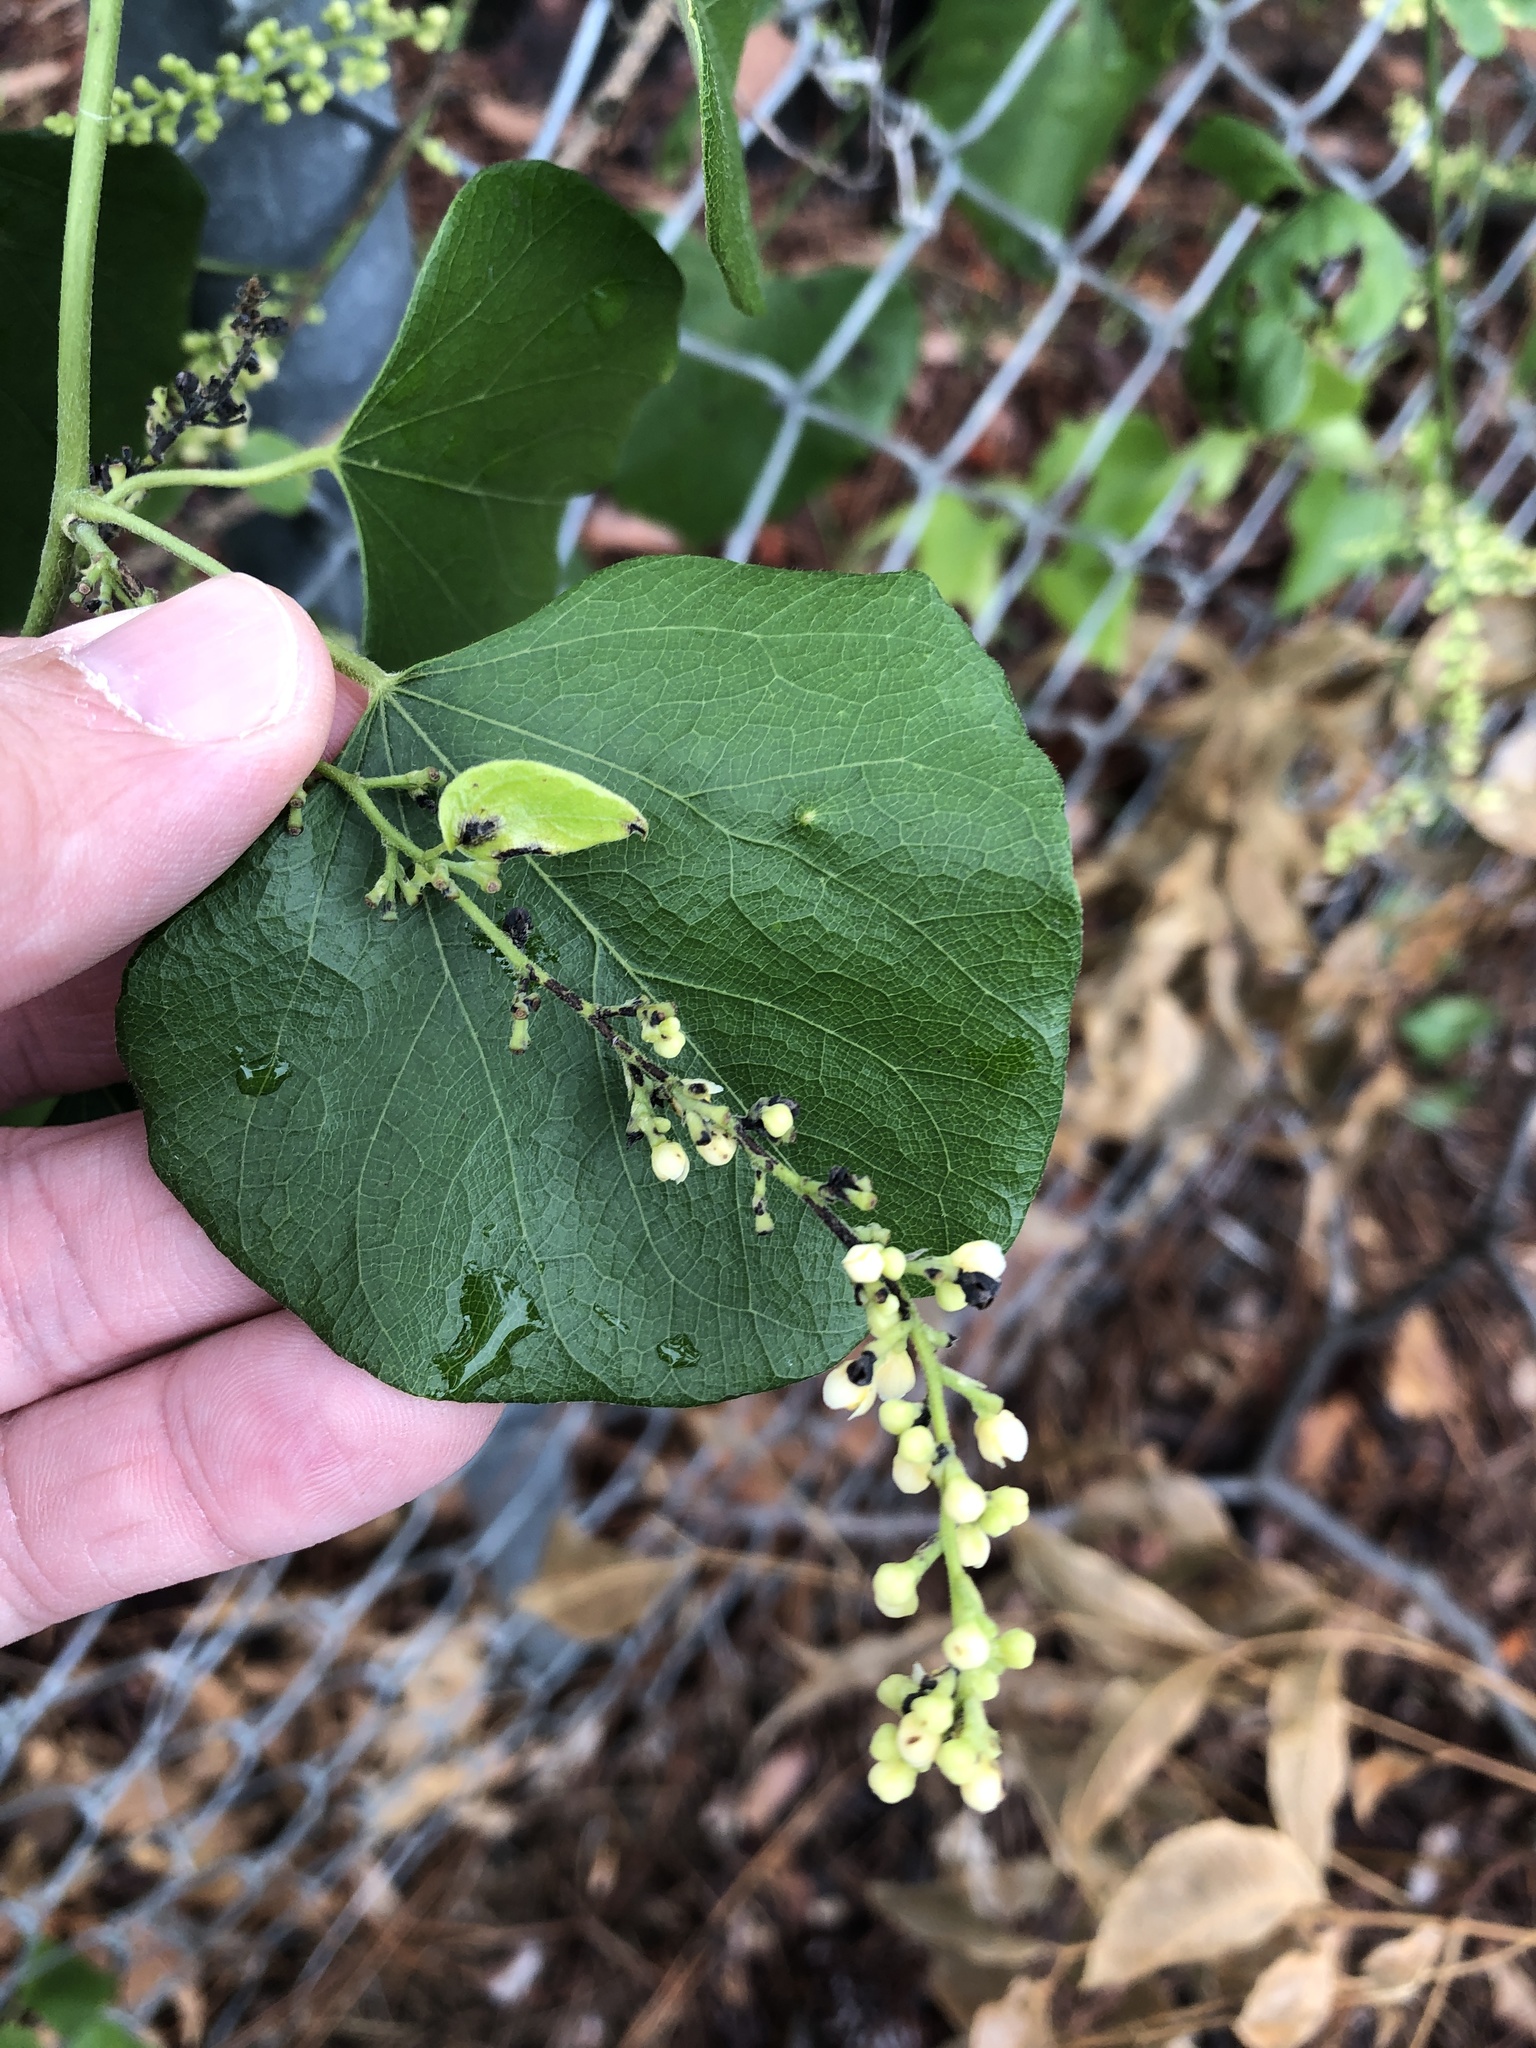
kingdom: Plantae
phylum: Tracheophyta
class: Magnoliopsida
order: Ranunculales
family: Menispermaceae
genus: Cocculus
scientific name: Cocculus carolinus
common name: Carolina moonseed
